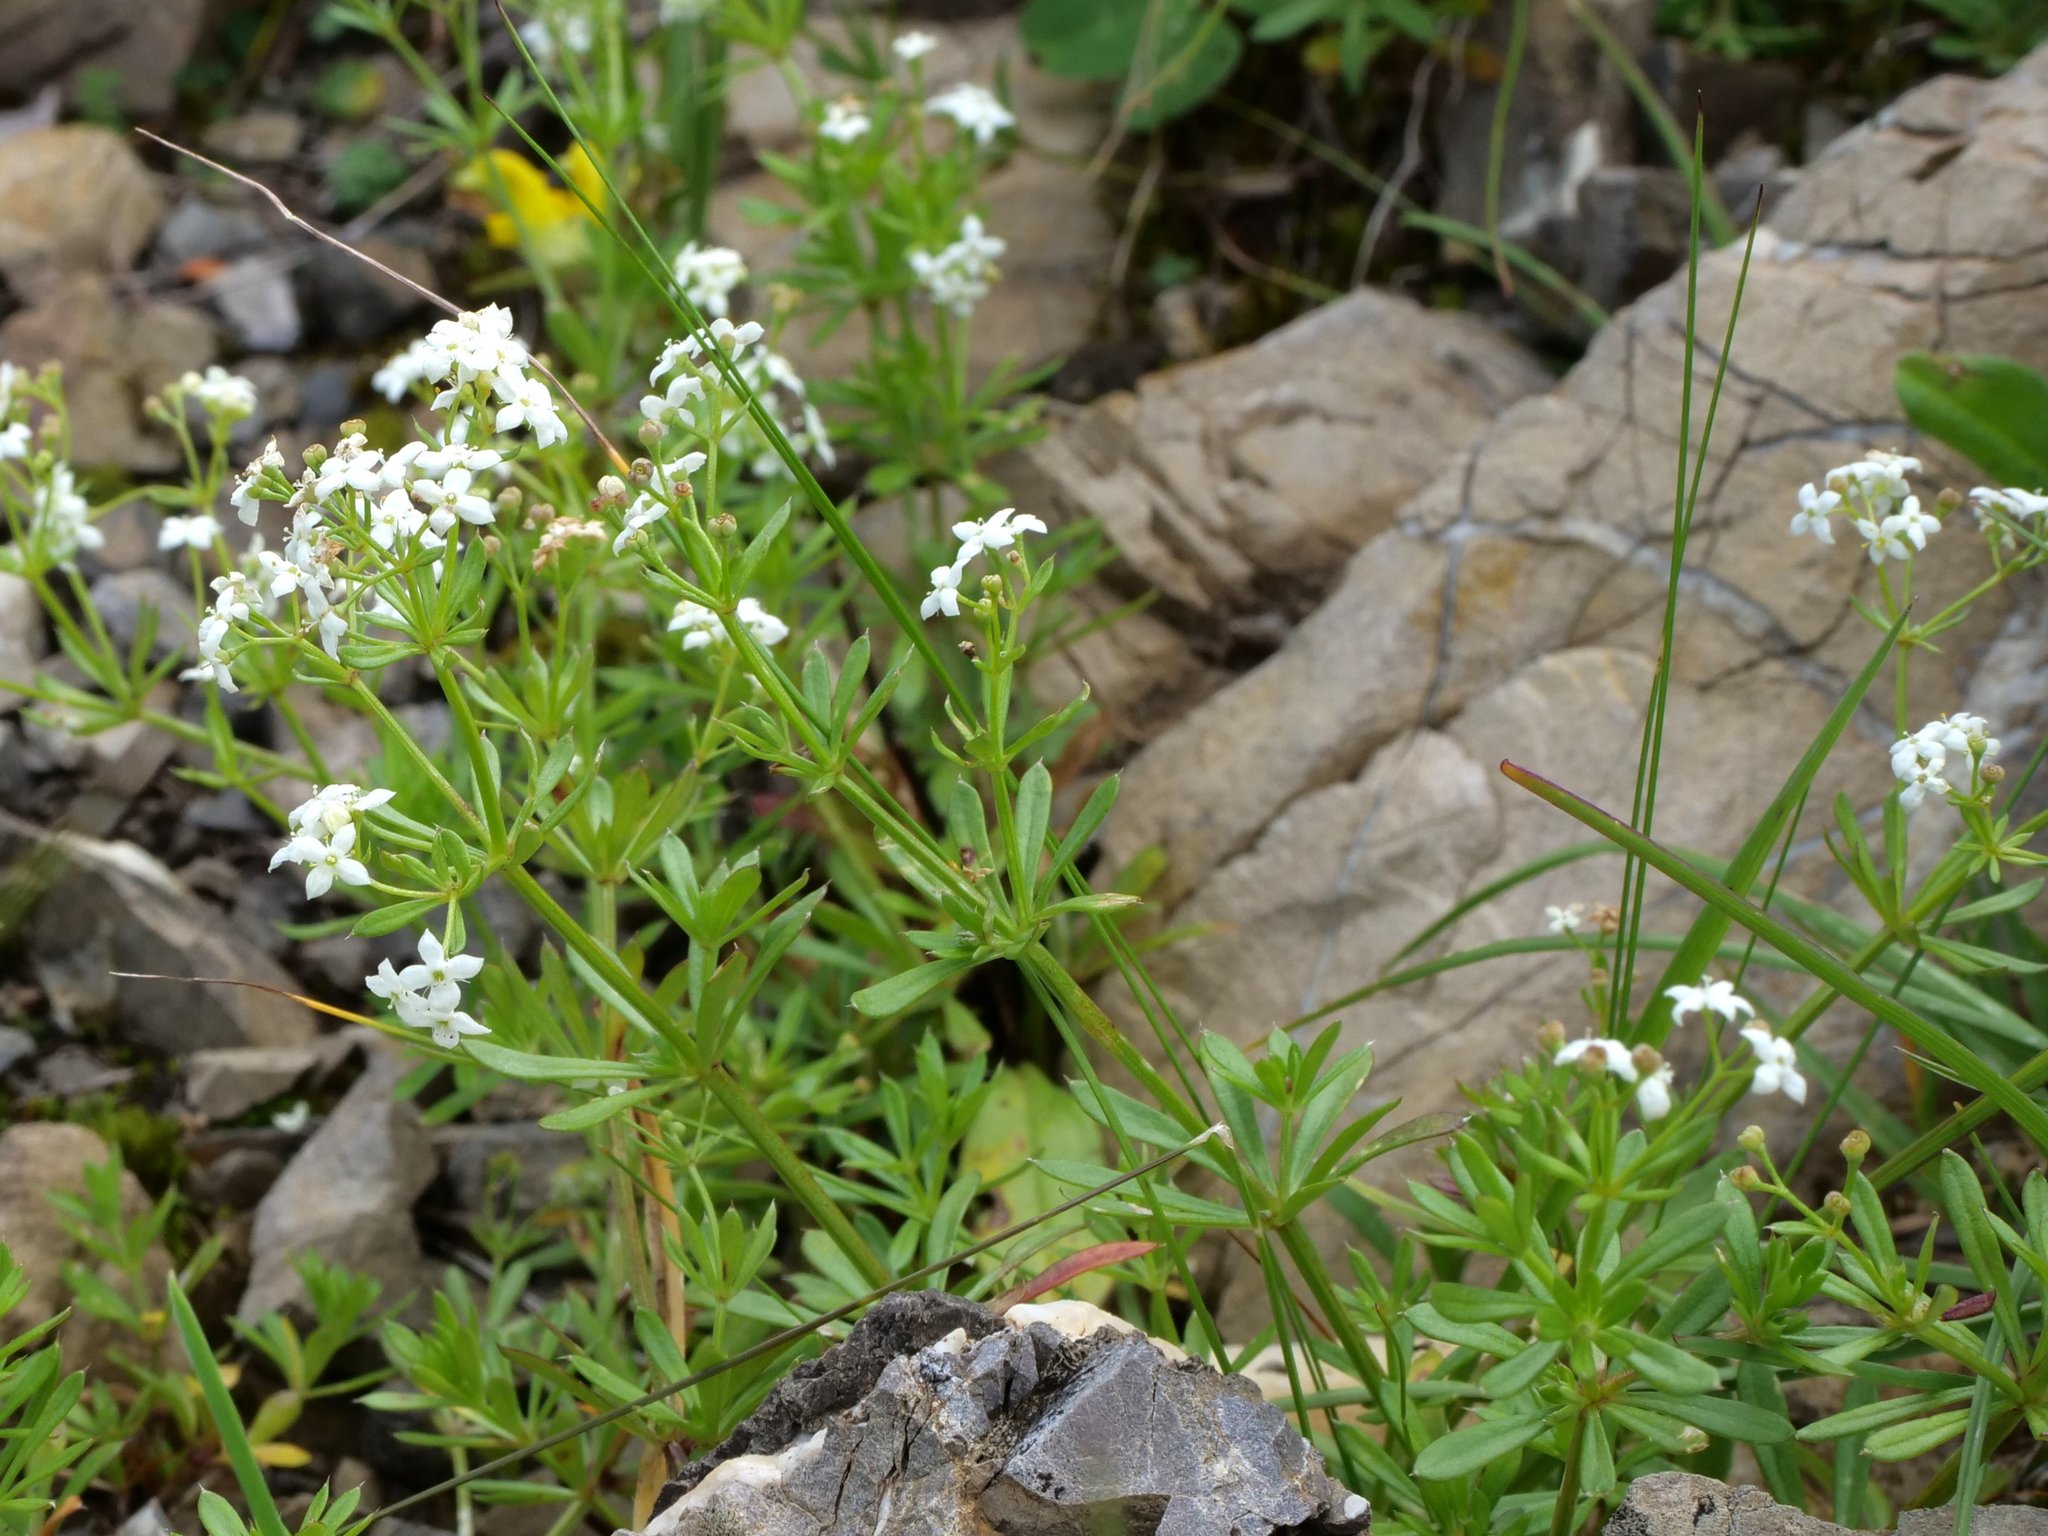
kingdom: Plantae
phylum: Tracheophyta
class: Magnoliopsida
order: Gentianales
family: Rubiaceae
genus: Galium
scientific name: Galium anisophyllon
